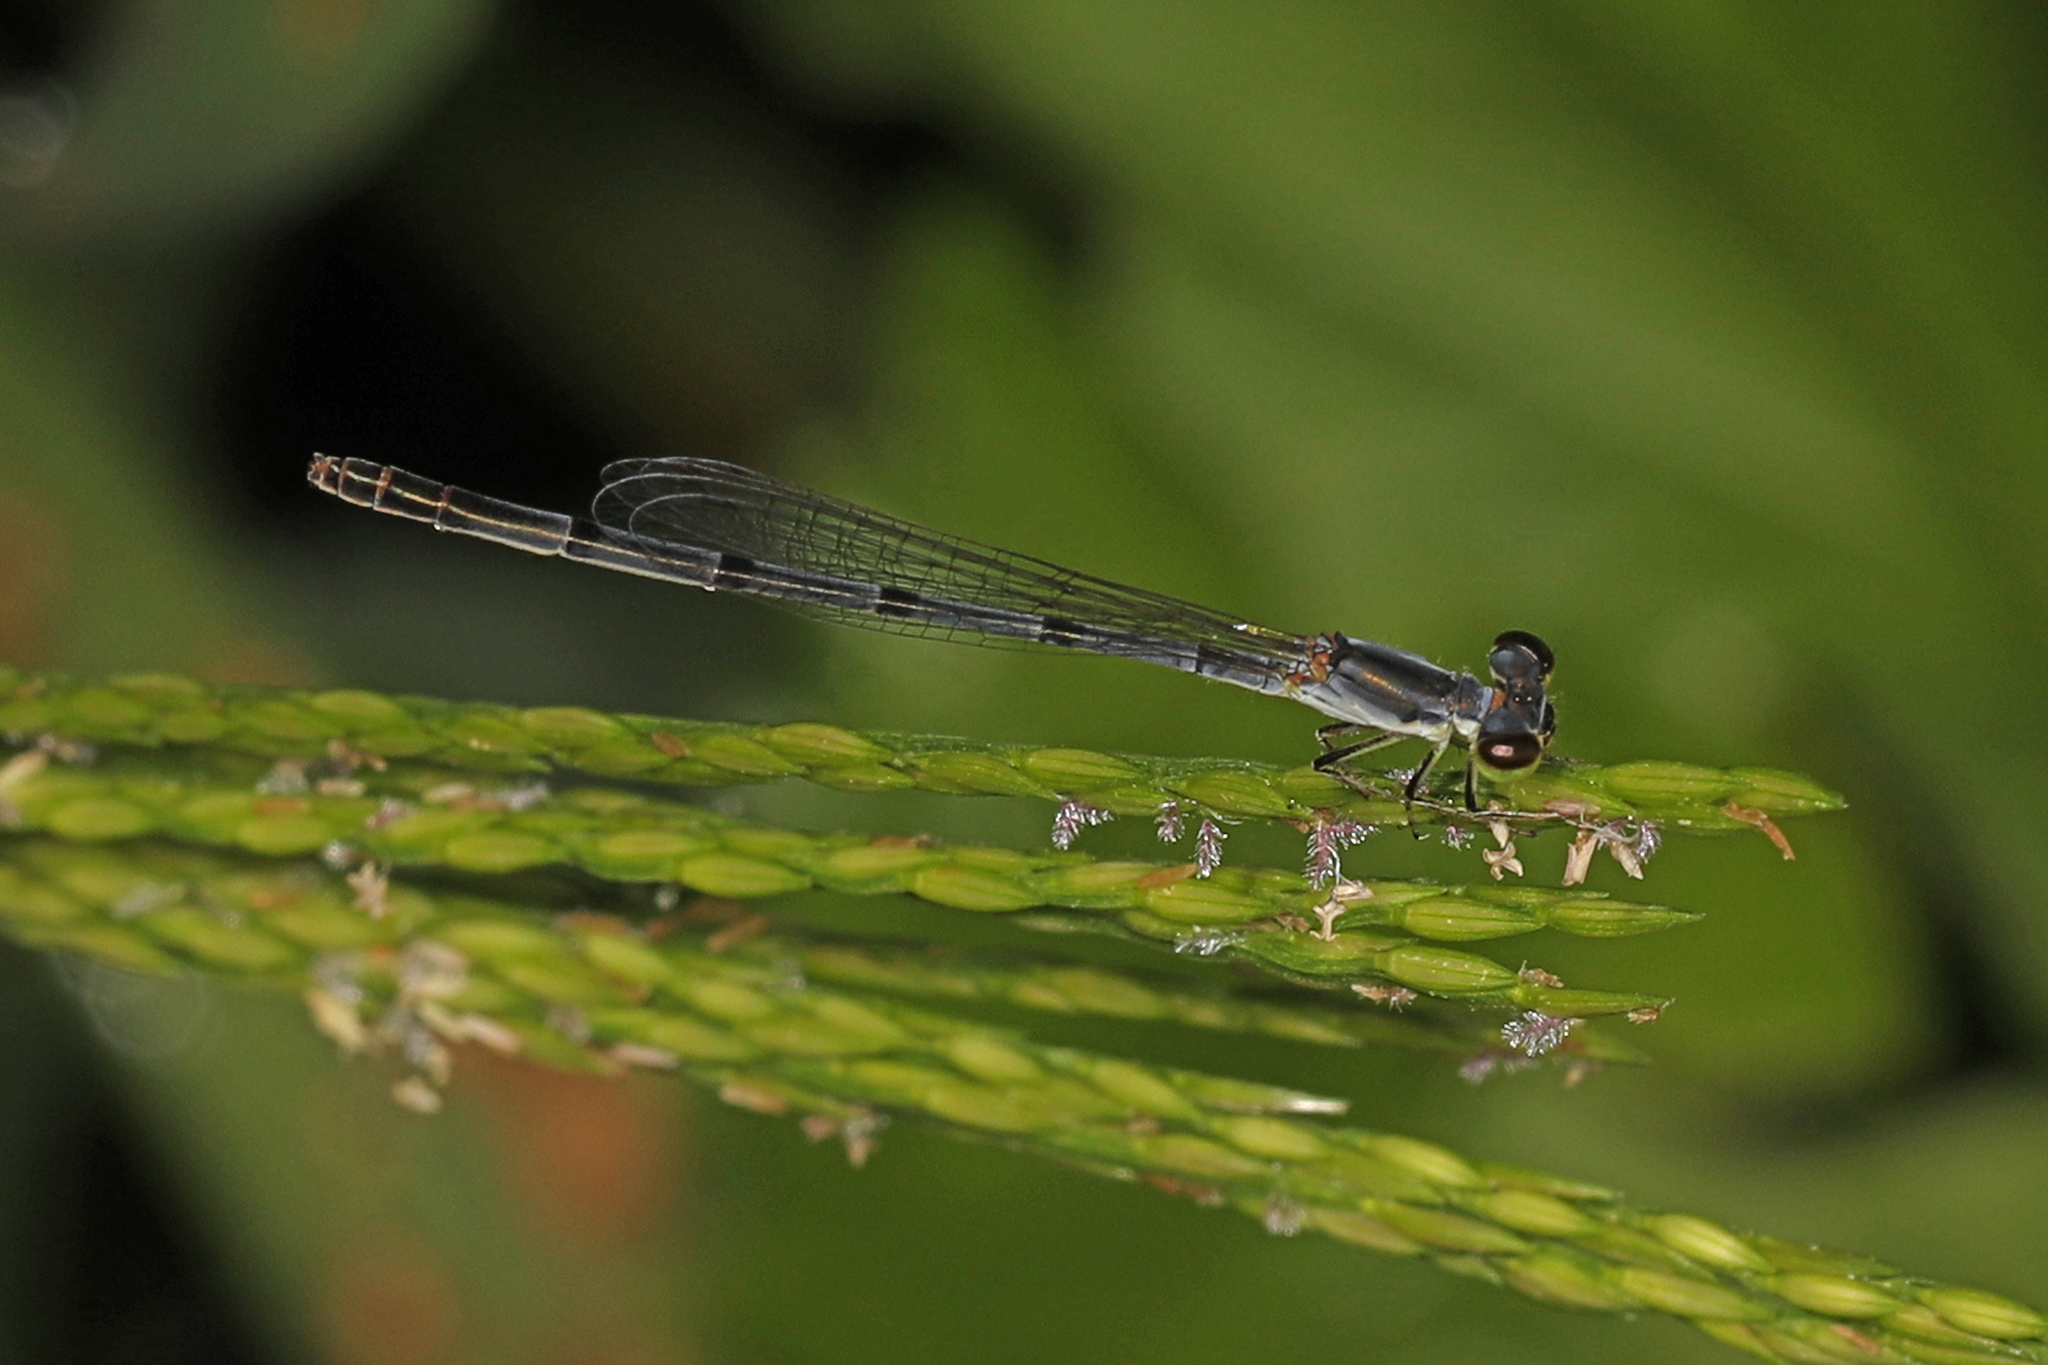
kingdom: Animalia
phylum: Arthropoda
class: Insecta
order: Odonata
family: Coenagrionidae
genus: Ischnura
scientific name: Ischnura posita
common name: Fragile forktail
